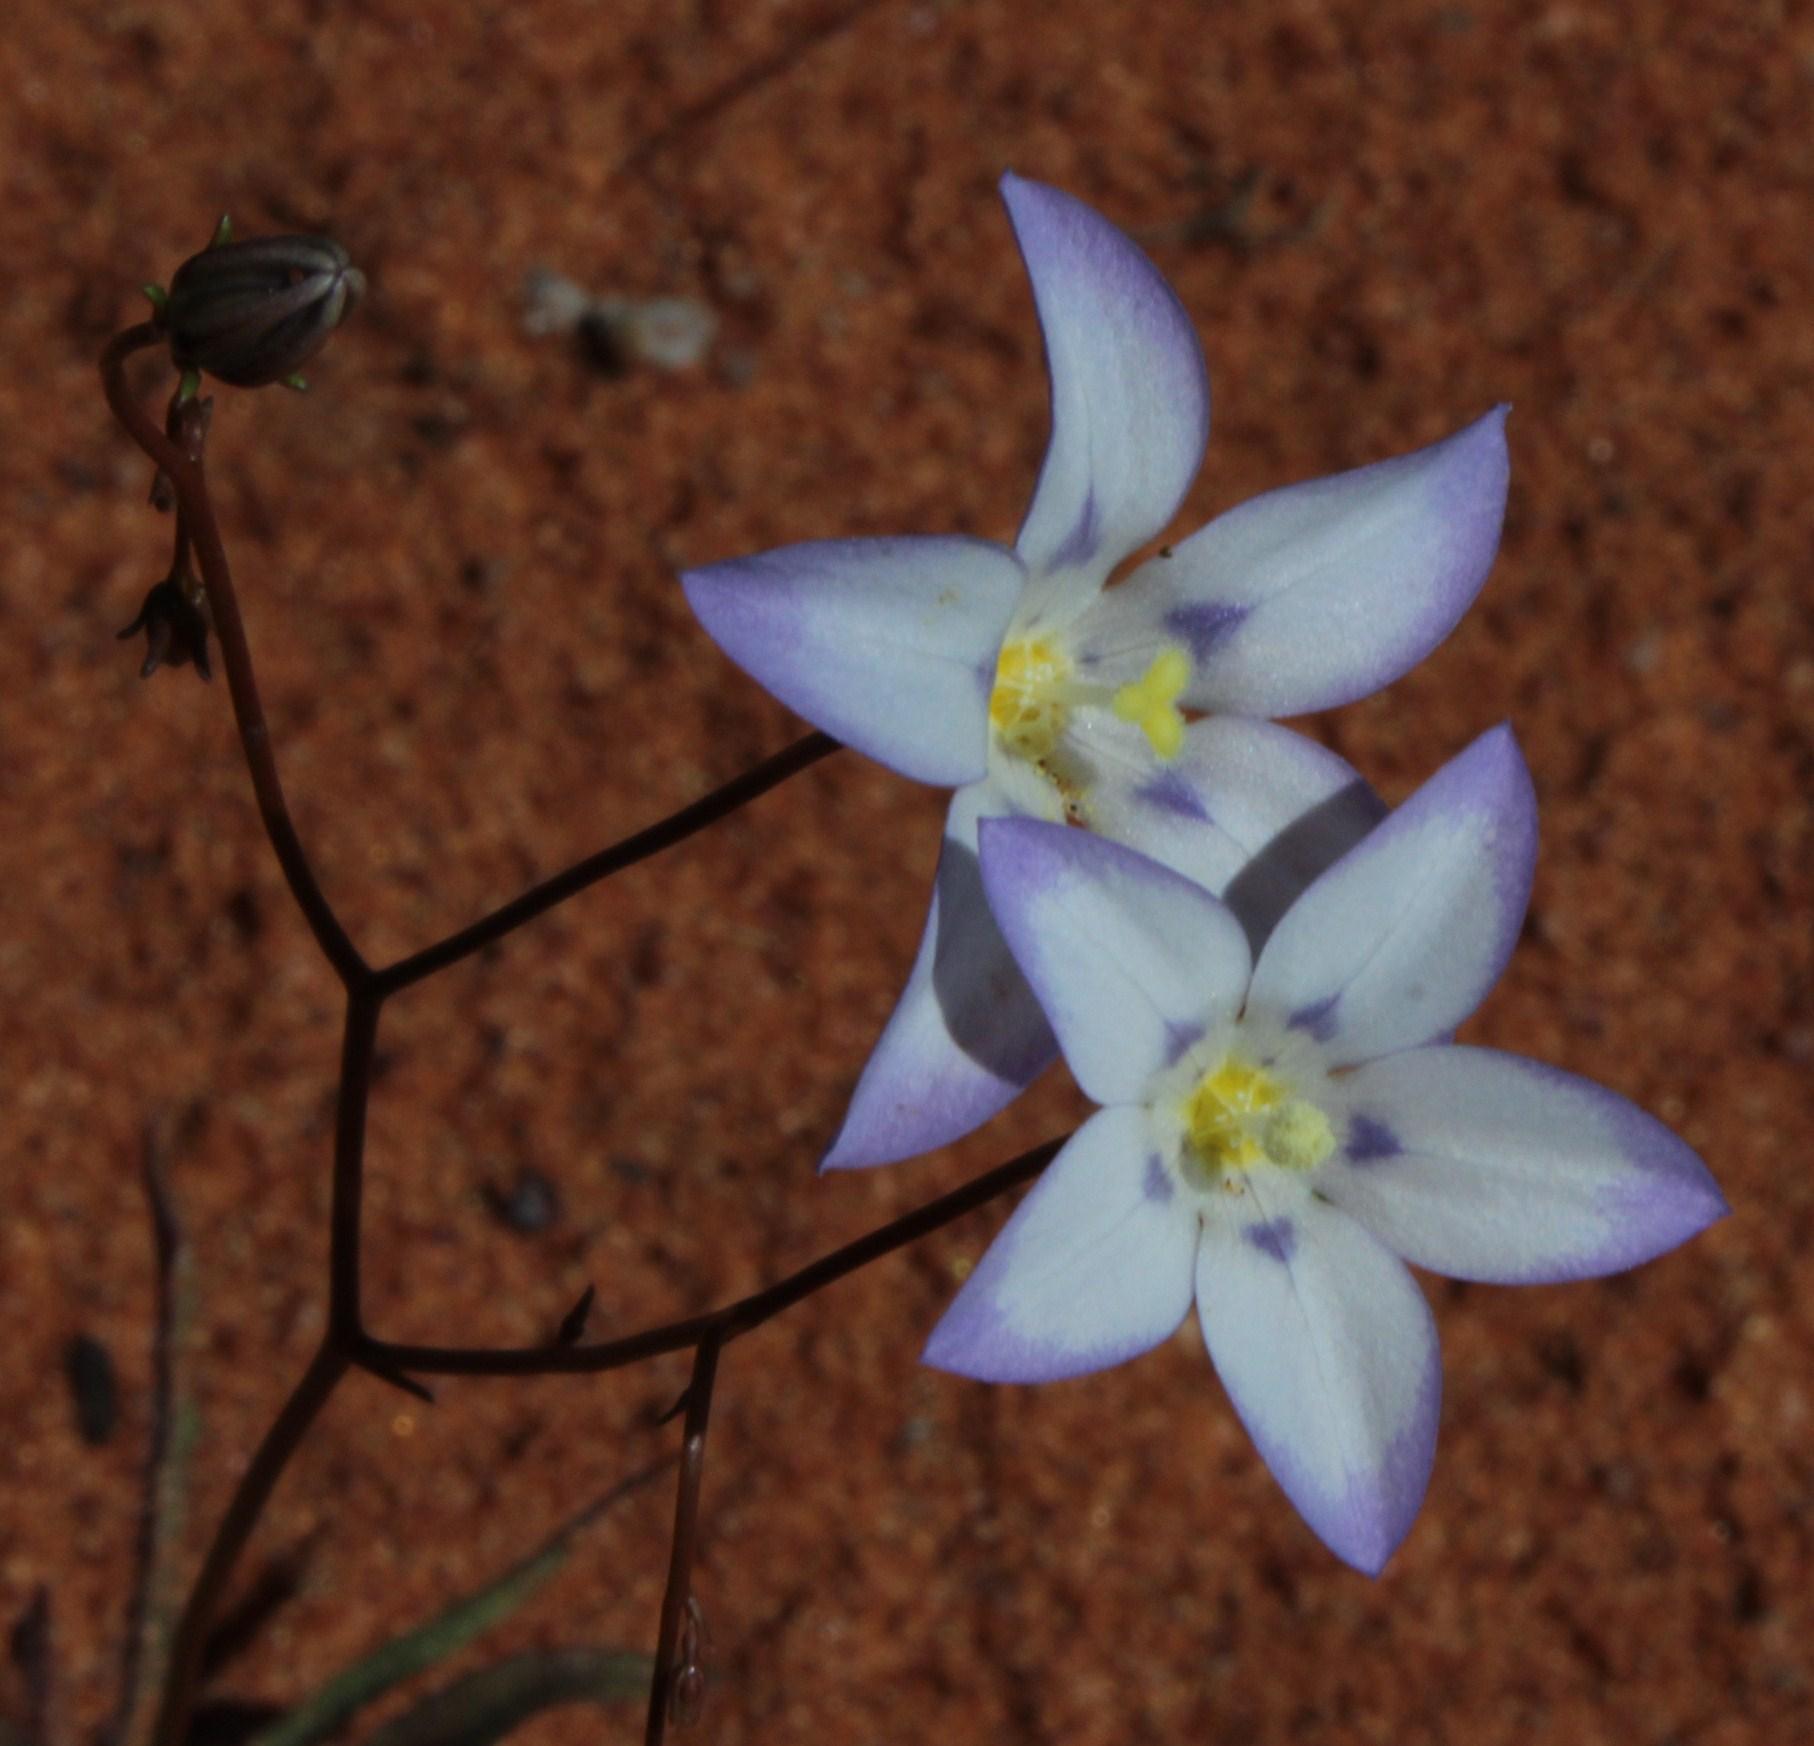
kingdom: Plantae
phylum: Tracheophyta
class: Magnoliopsida
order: Asterales
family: Campanulaceae
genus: Wahlenbergia
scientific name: Wahlenbergia annularis
